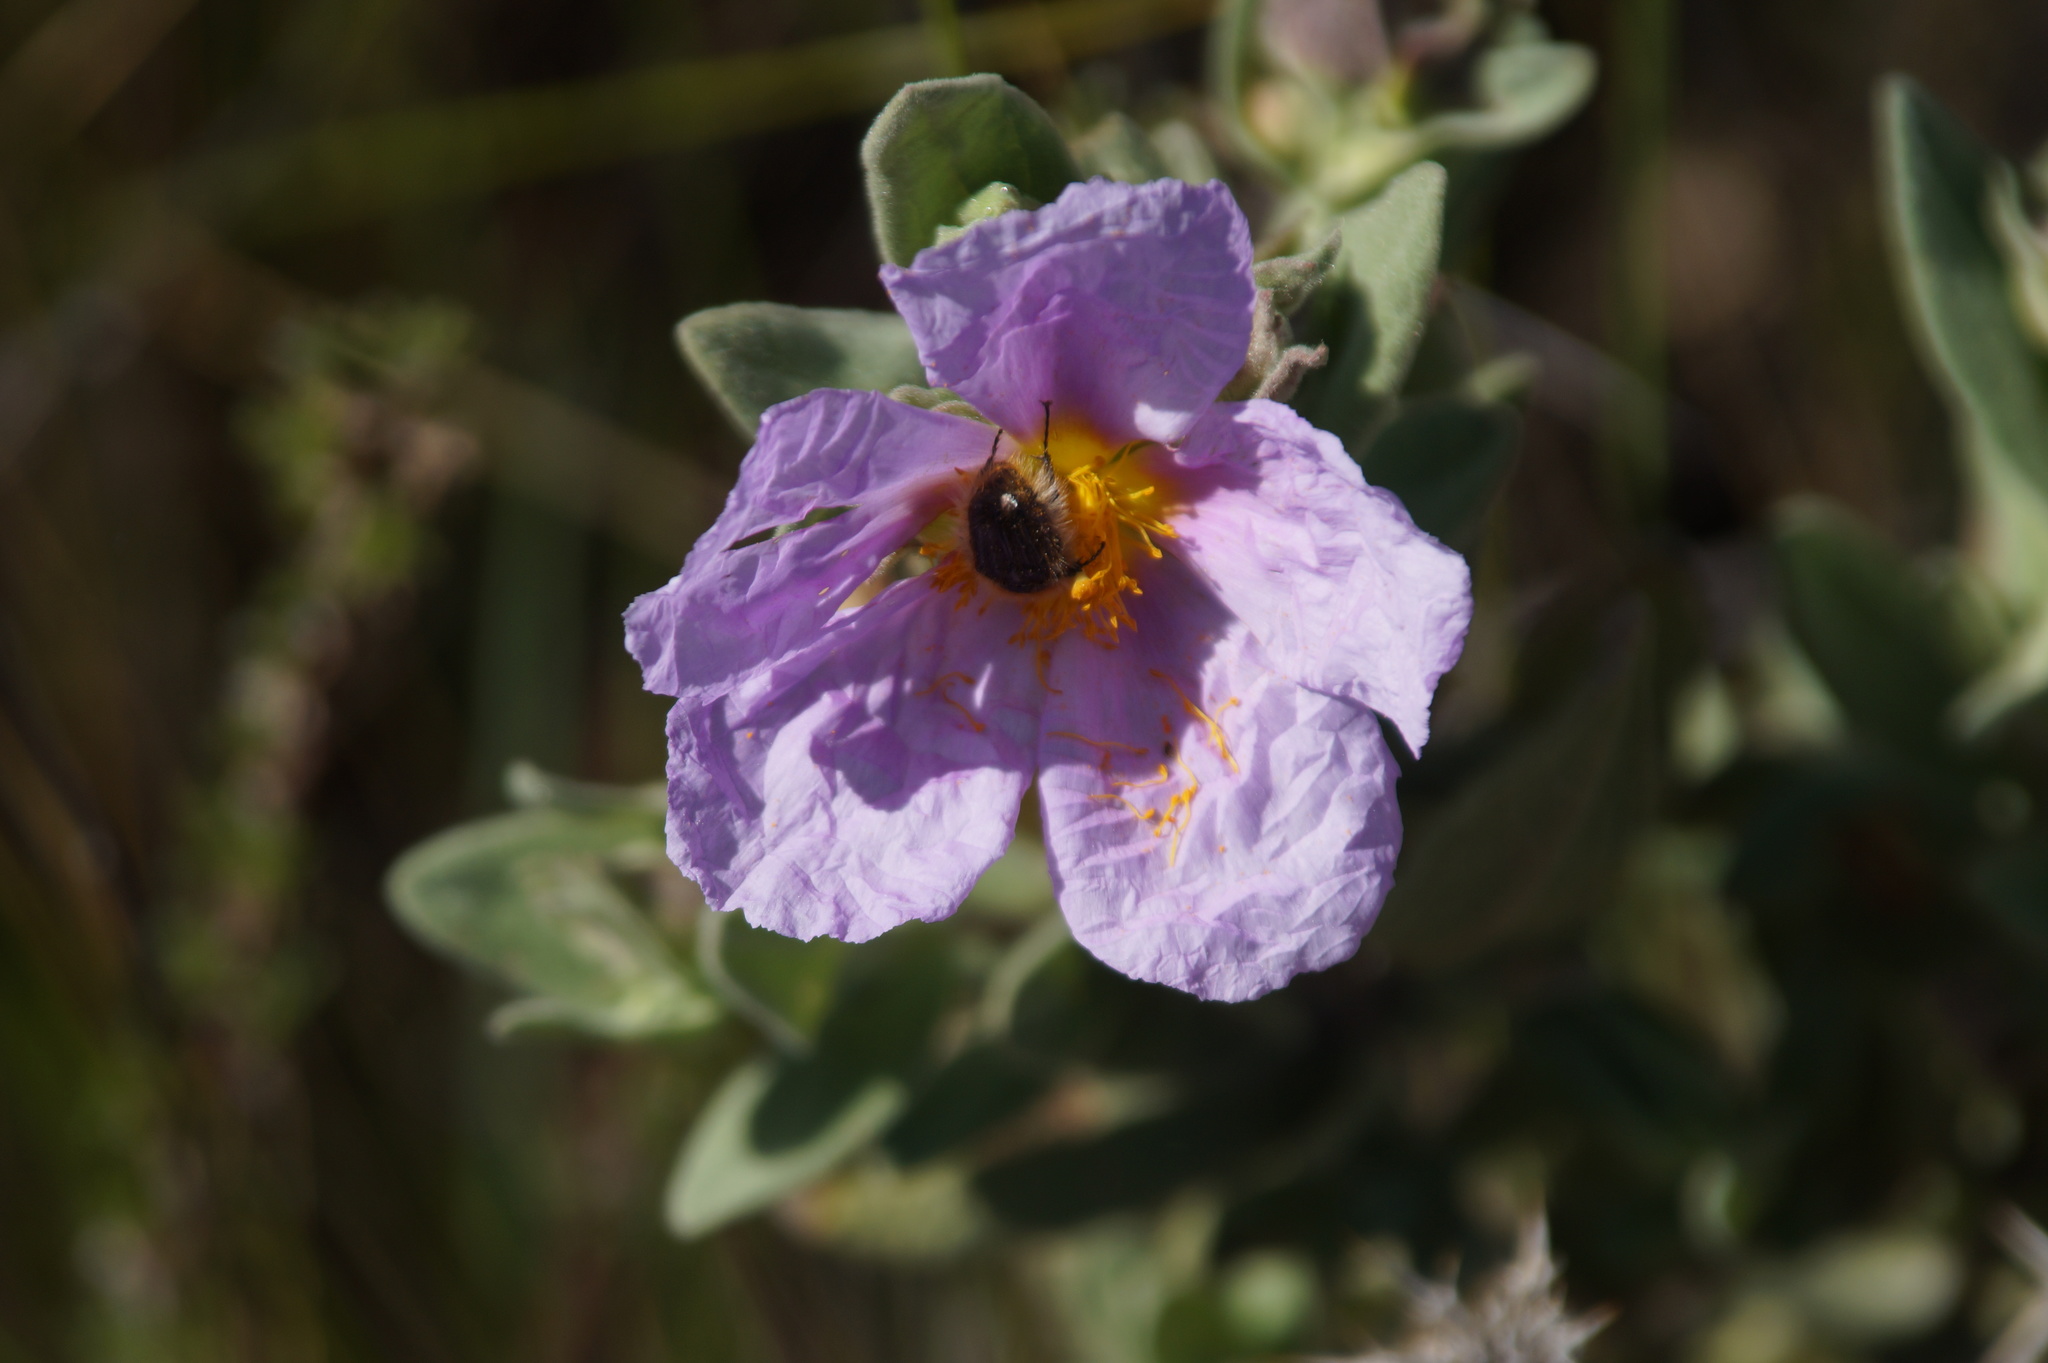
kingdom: Plantae
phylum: Tracheophyta
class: Magnoliopsida
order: Malvales
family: Cistaceae
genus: Cistus
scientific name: Cistus albidus
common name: White-leaf rock-rose
